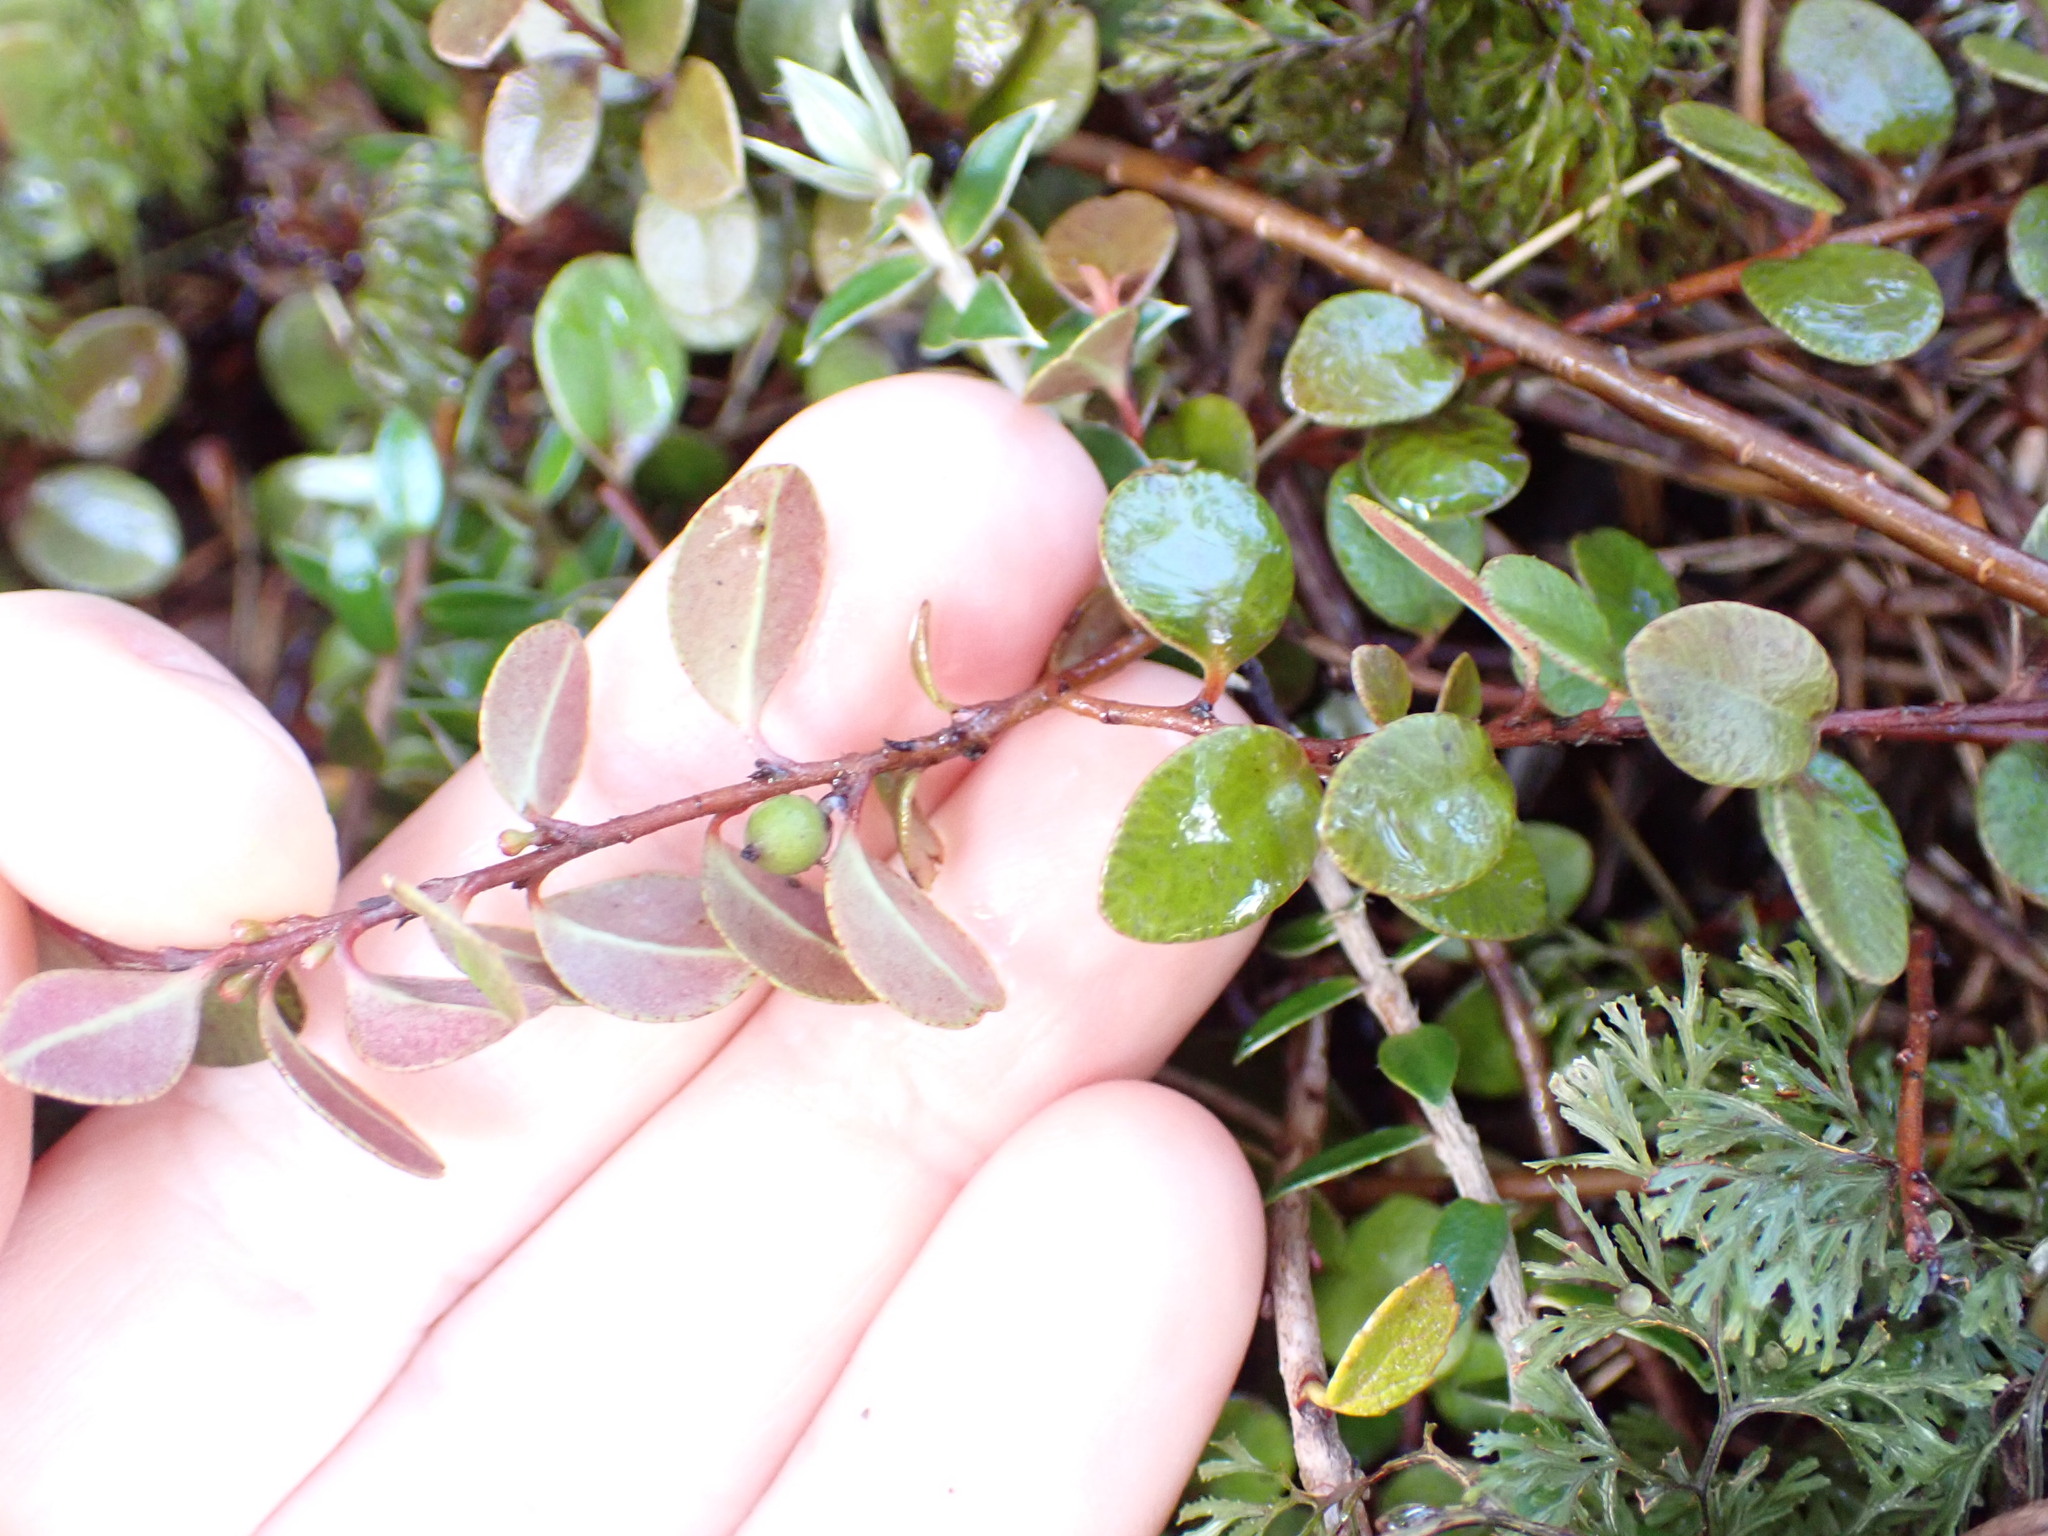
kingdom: Plantae
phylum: Tracheophyta
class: Magnoliopsida
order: Ericales
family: Primulaceae
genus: Myrsine
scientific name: Myrsine nummularia
